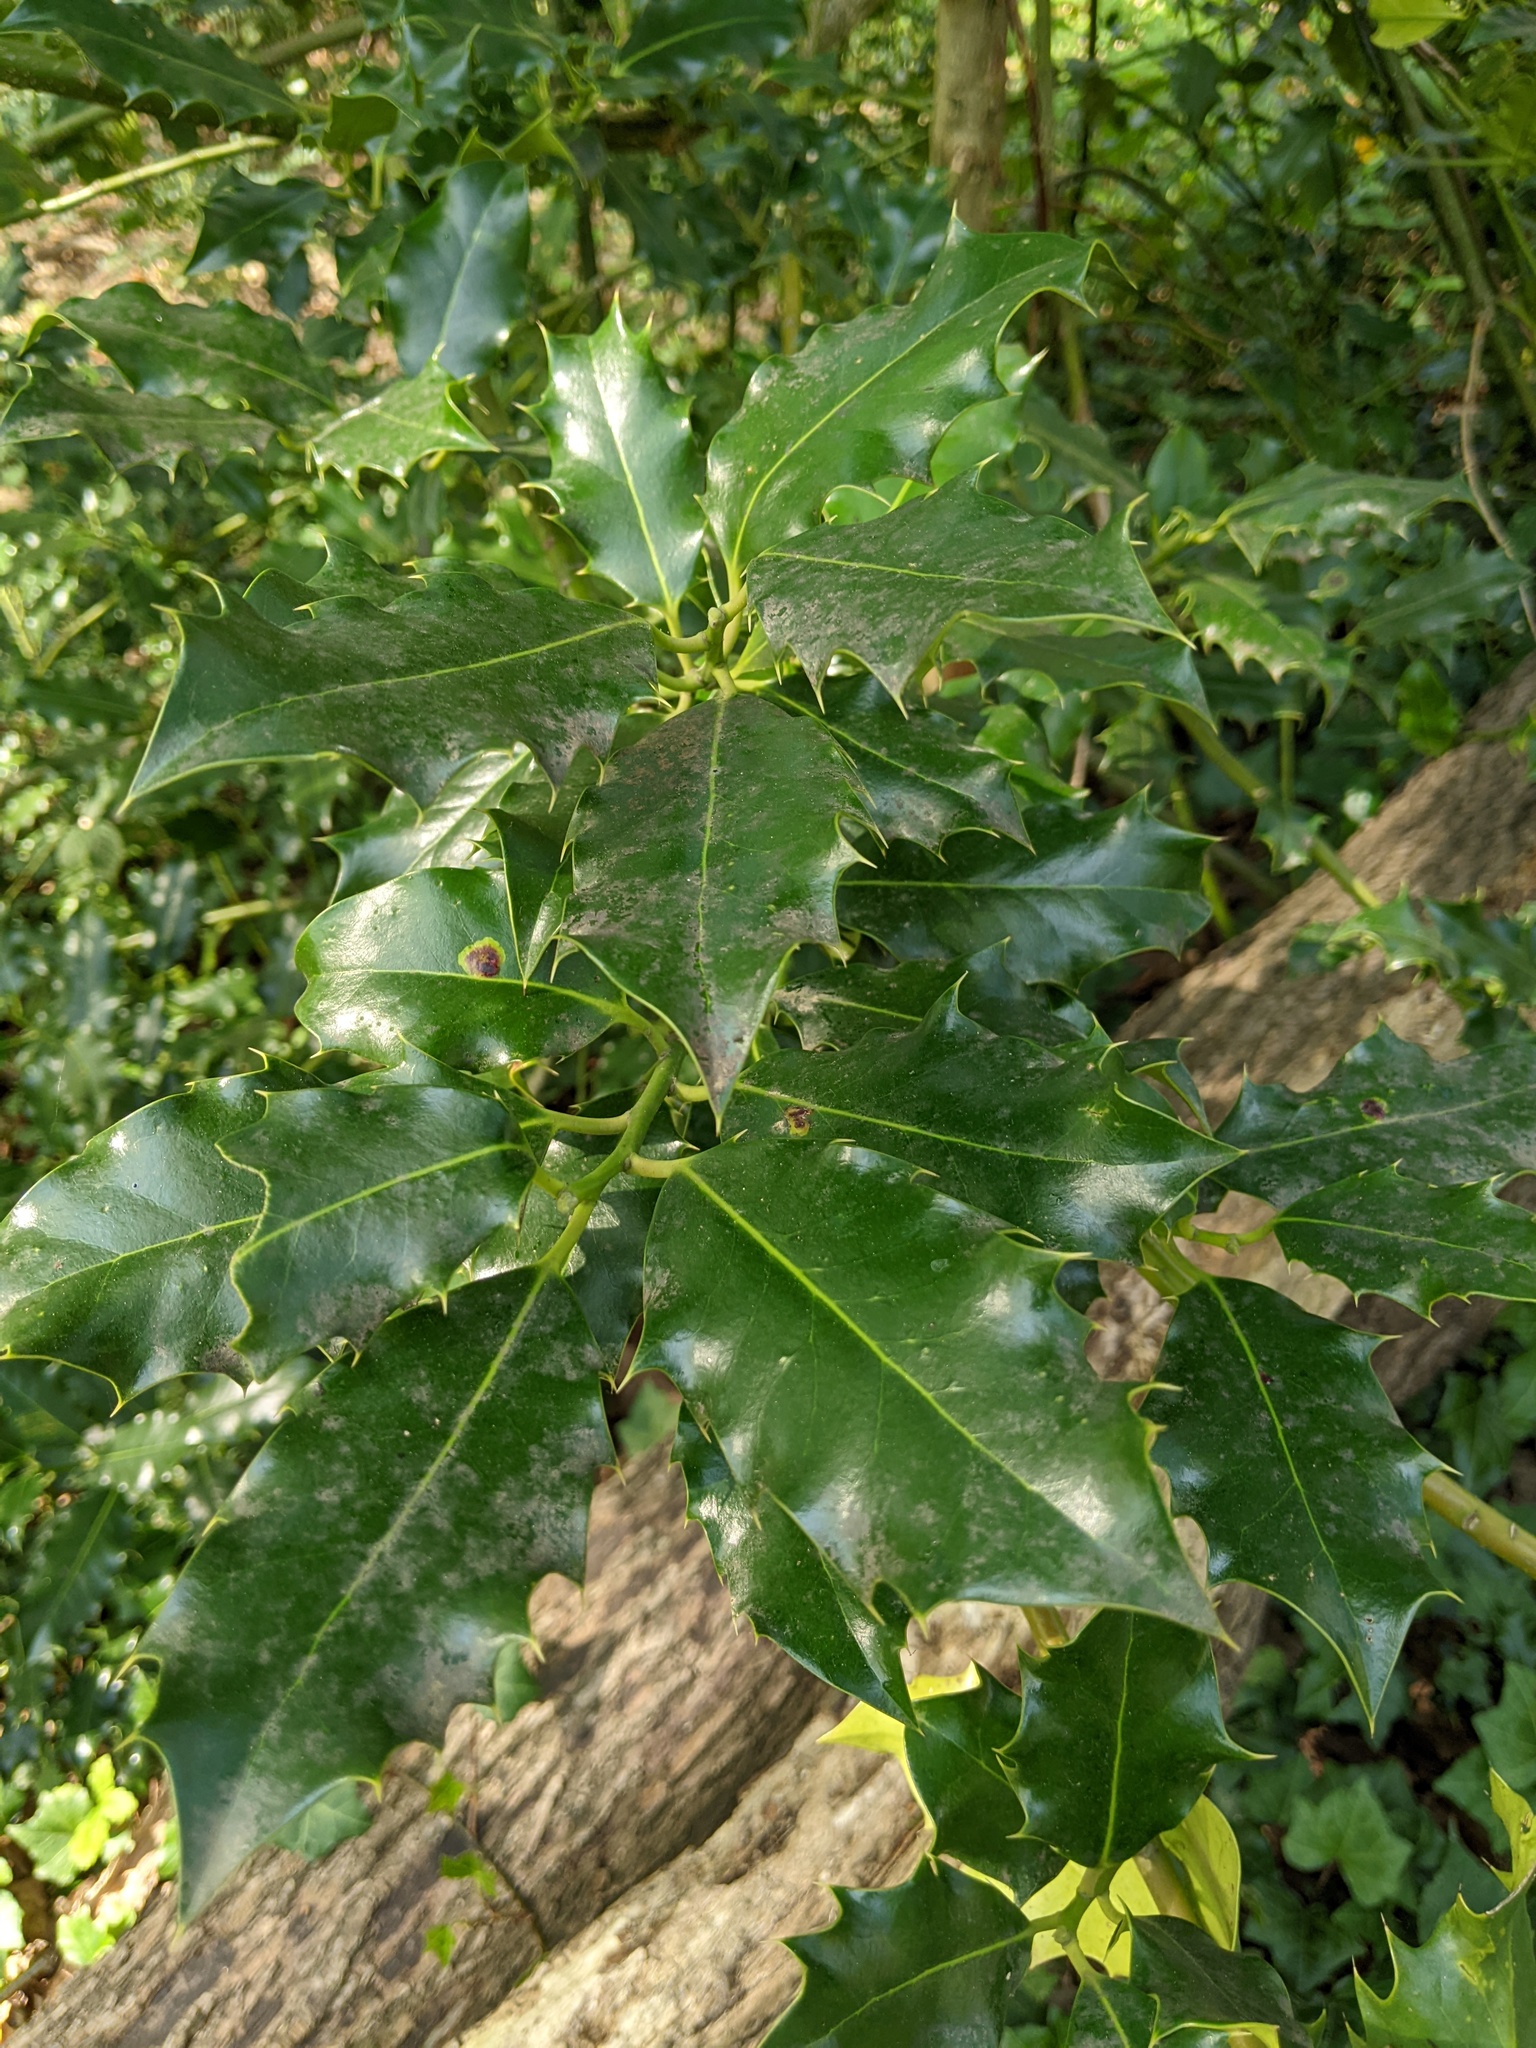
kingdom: Plantae
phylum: Tracheophyta
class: Magnoliopsida
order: Aquifoliales
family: Aquifoliaceae
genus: Ilex
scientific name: Ilex aquifolium
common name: English holly
